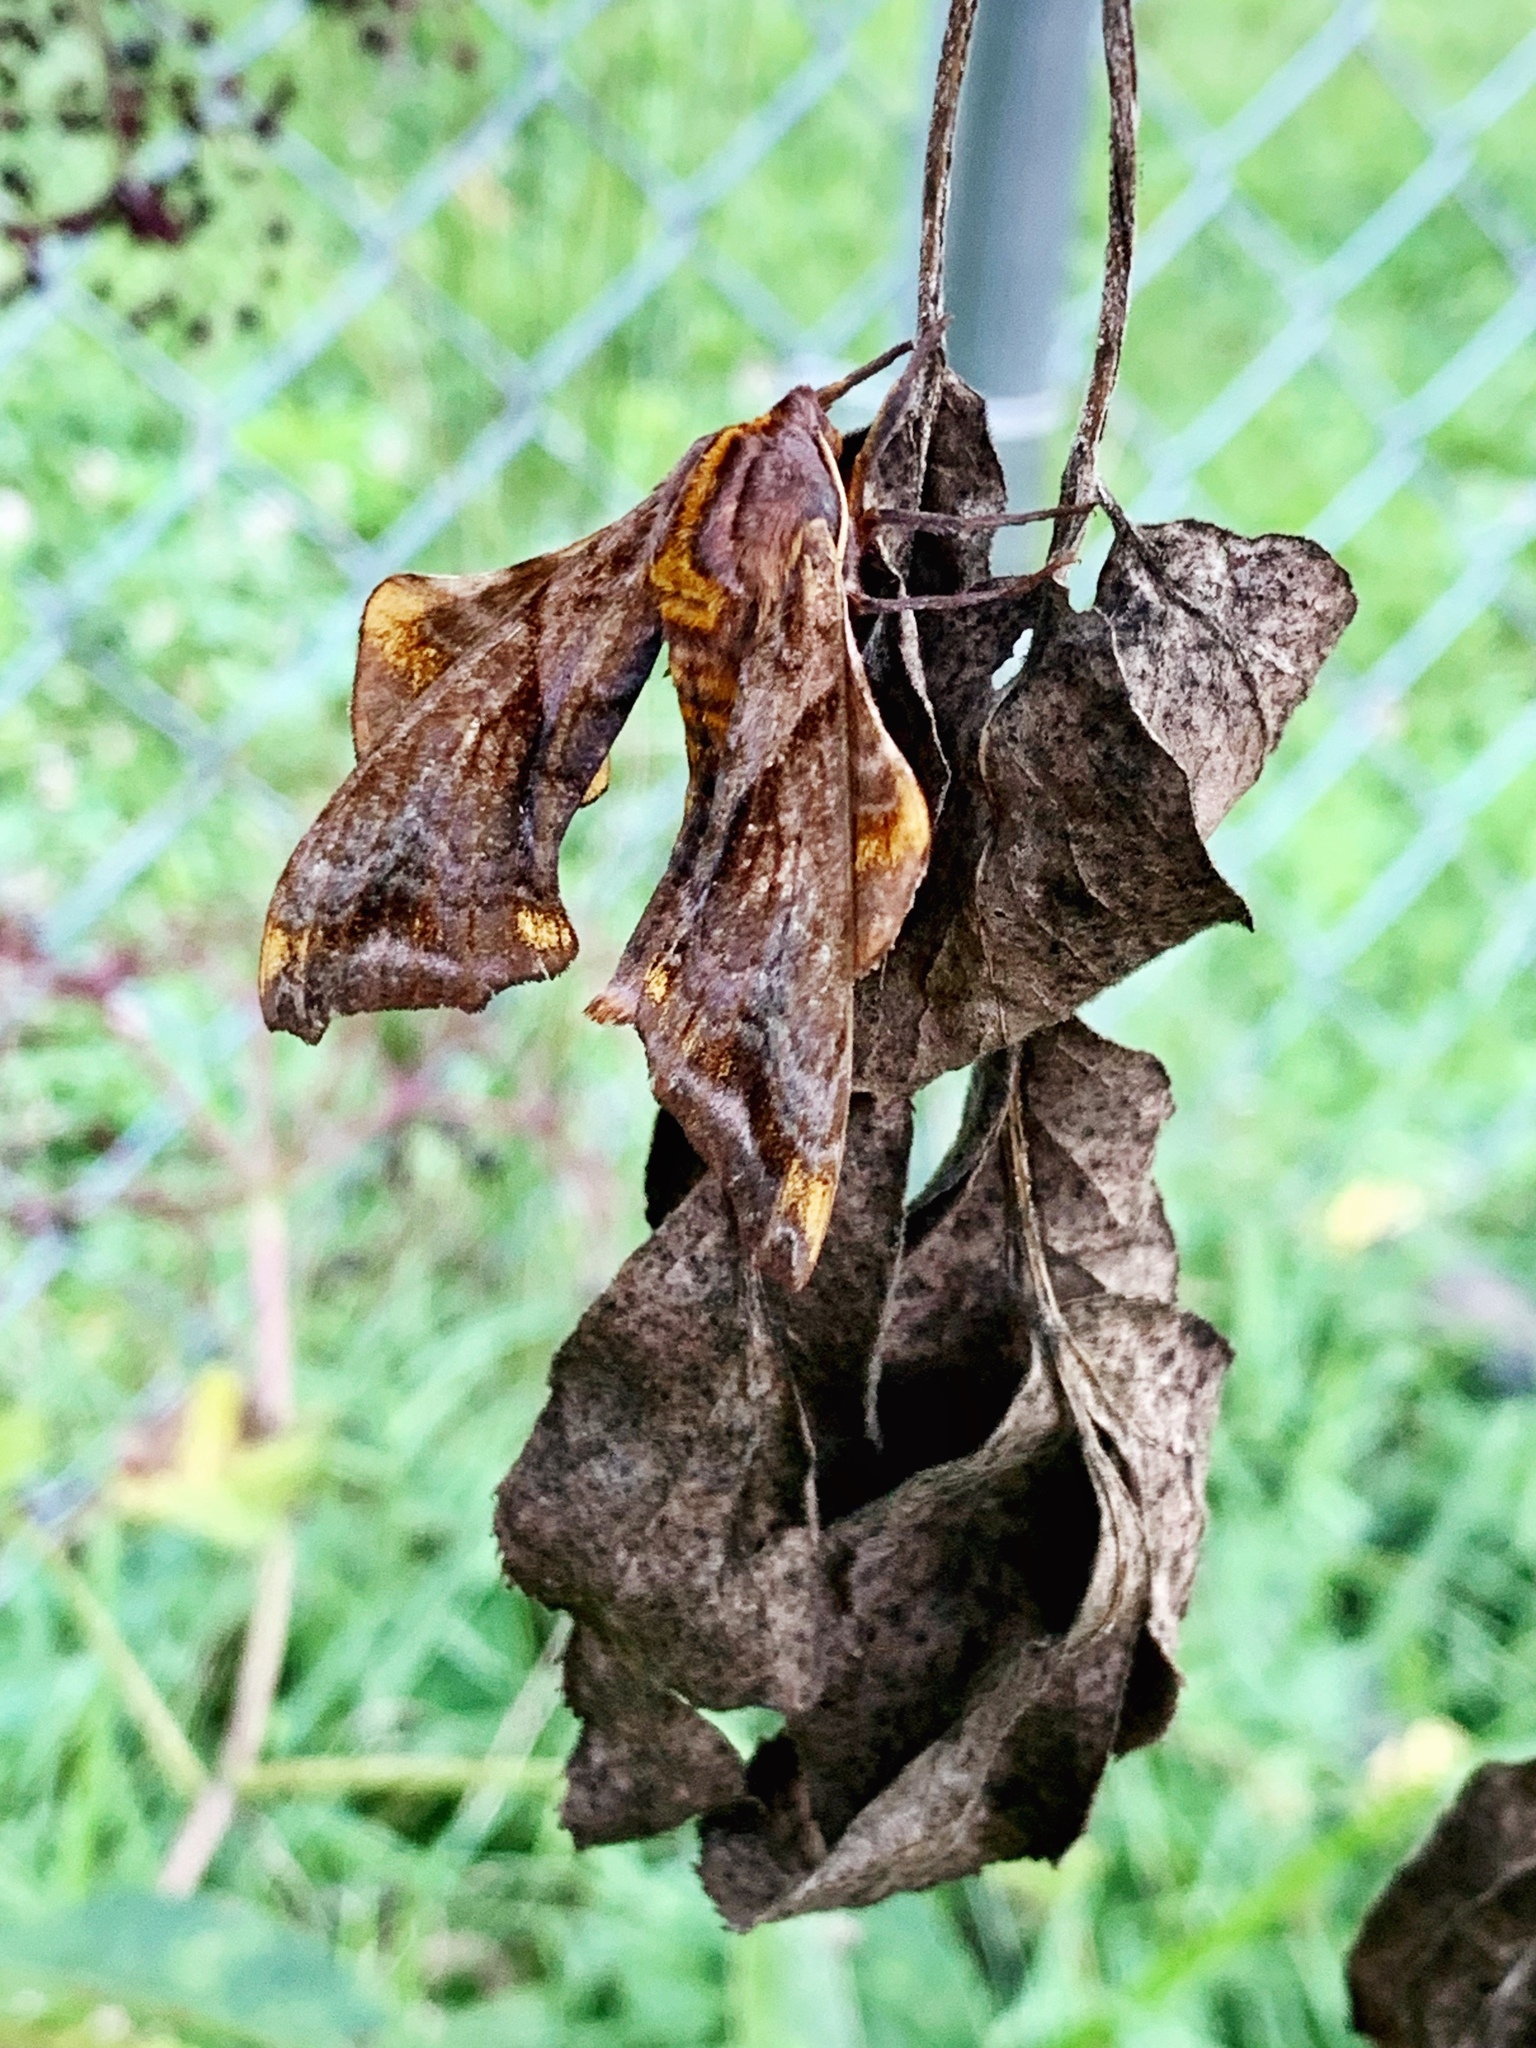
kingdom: Animalia
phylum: Arthropoda
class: Insecta
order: Lepidoptera
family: Sphingidae
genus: Paonias
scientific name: Paonias myops
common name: Small-eyed sphinx
